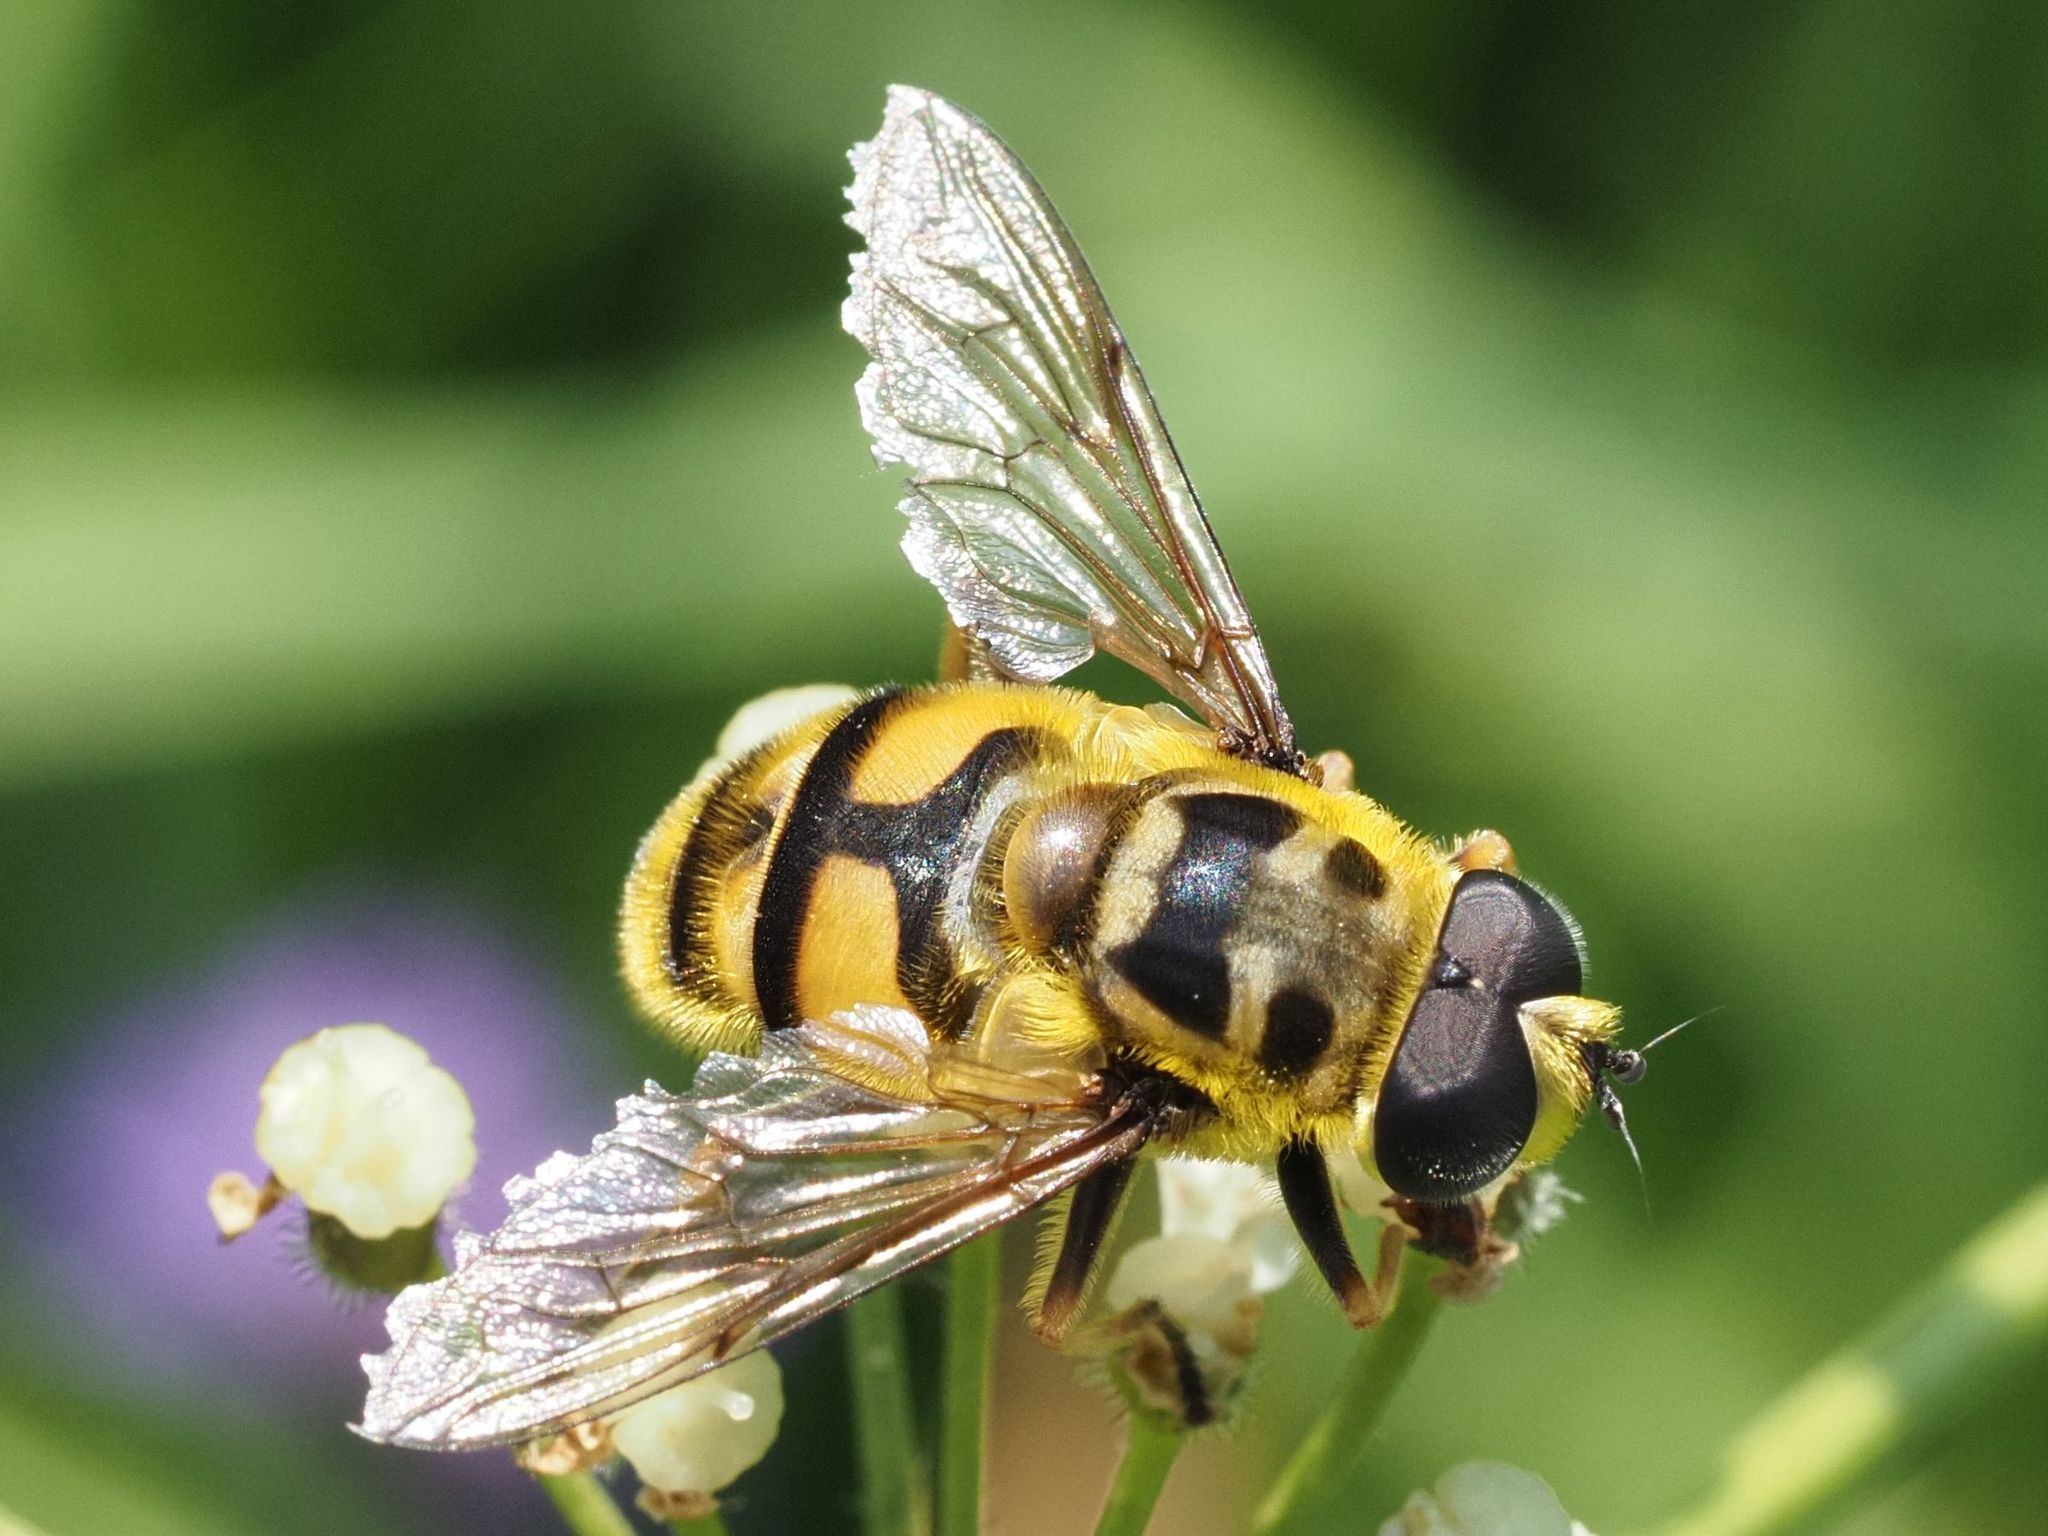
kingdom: Animalia
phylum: Arthropoda
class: Insecta
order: Diptera
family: Syrphidae
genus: Myathropa
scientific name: Myathropa florea
